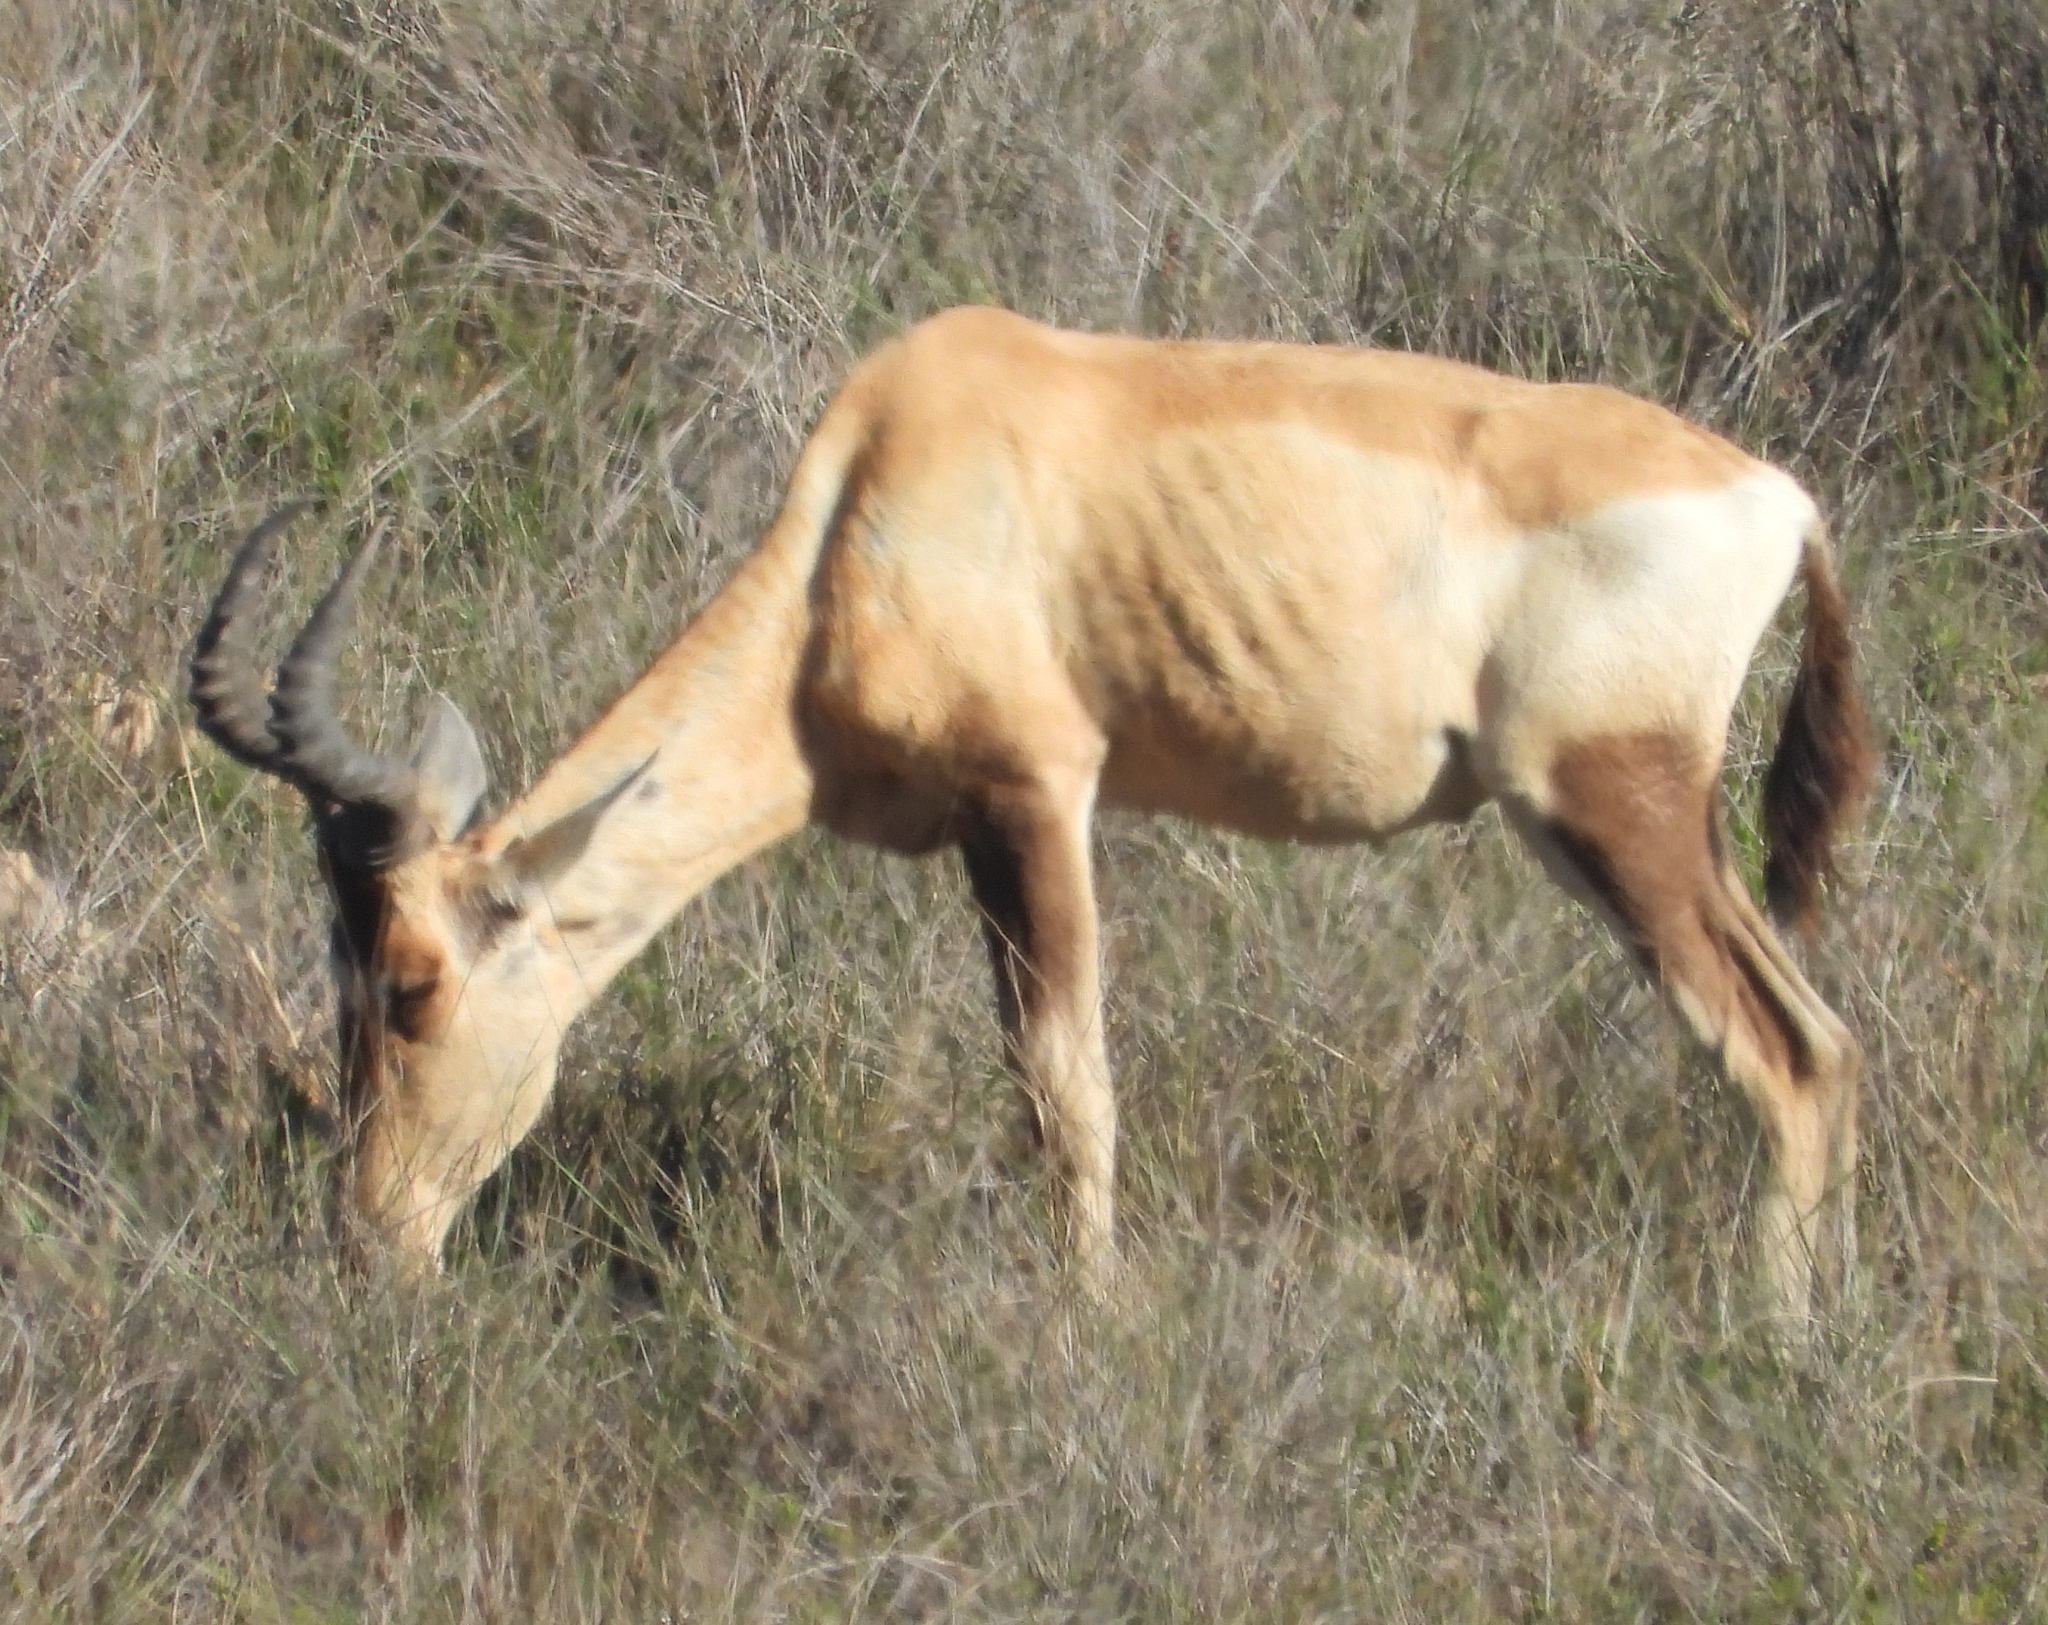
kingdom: Animalia
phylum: Chordata
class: Mammalia
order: Artiodactyla
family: Bovidae
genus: Alcelaphus
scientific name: Alcelaphus caama
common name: Red hartebeest
